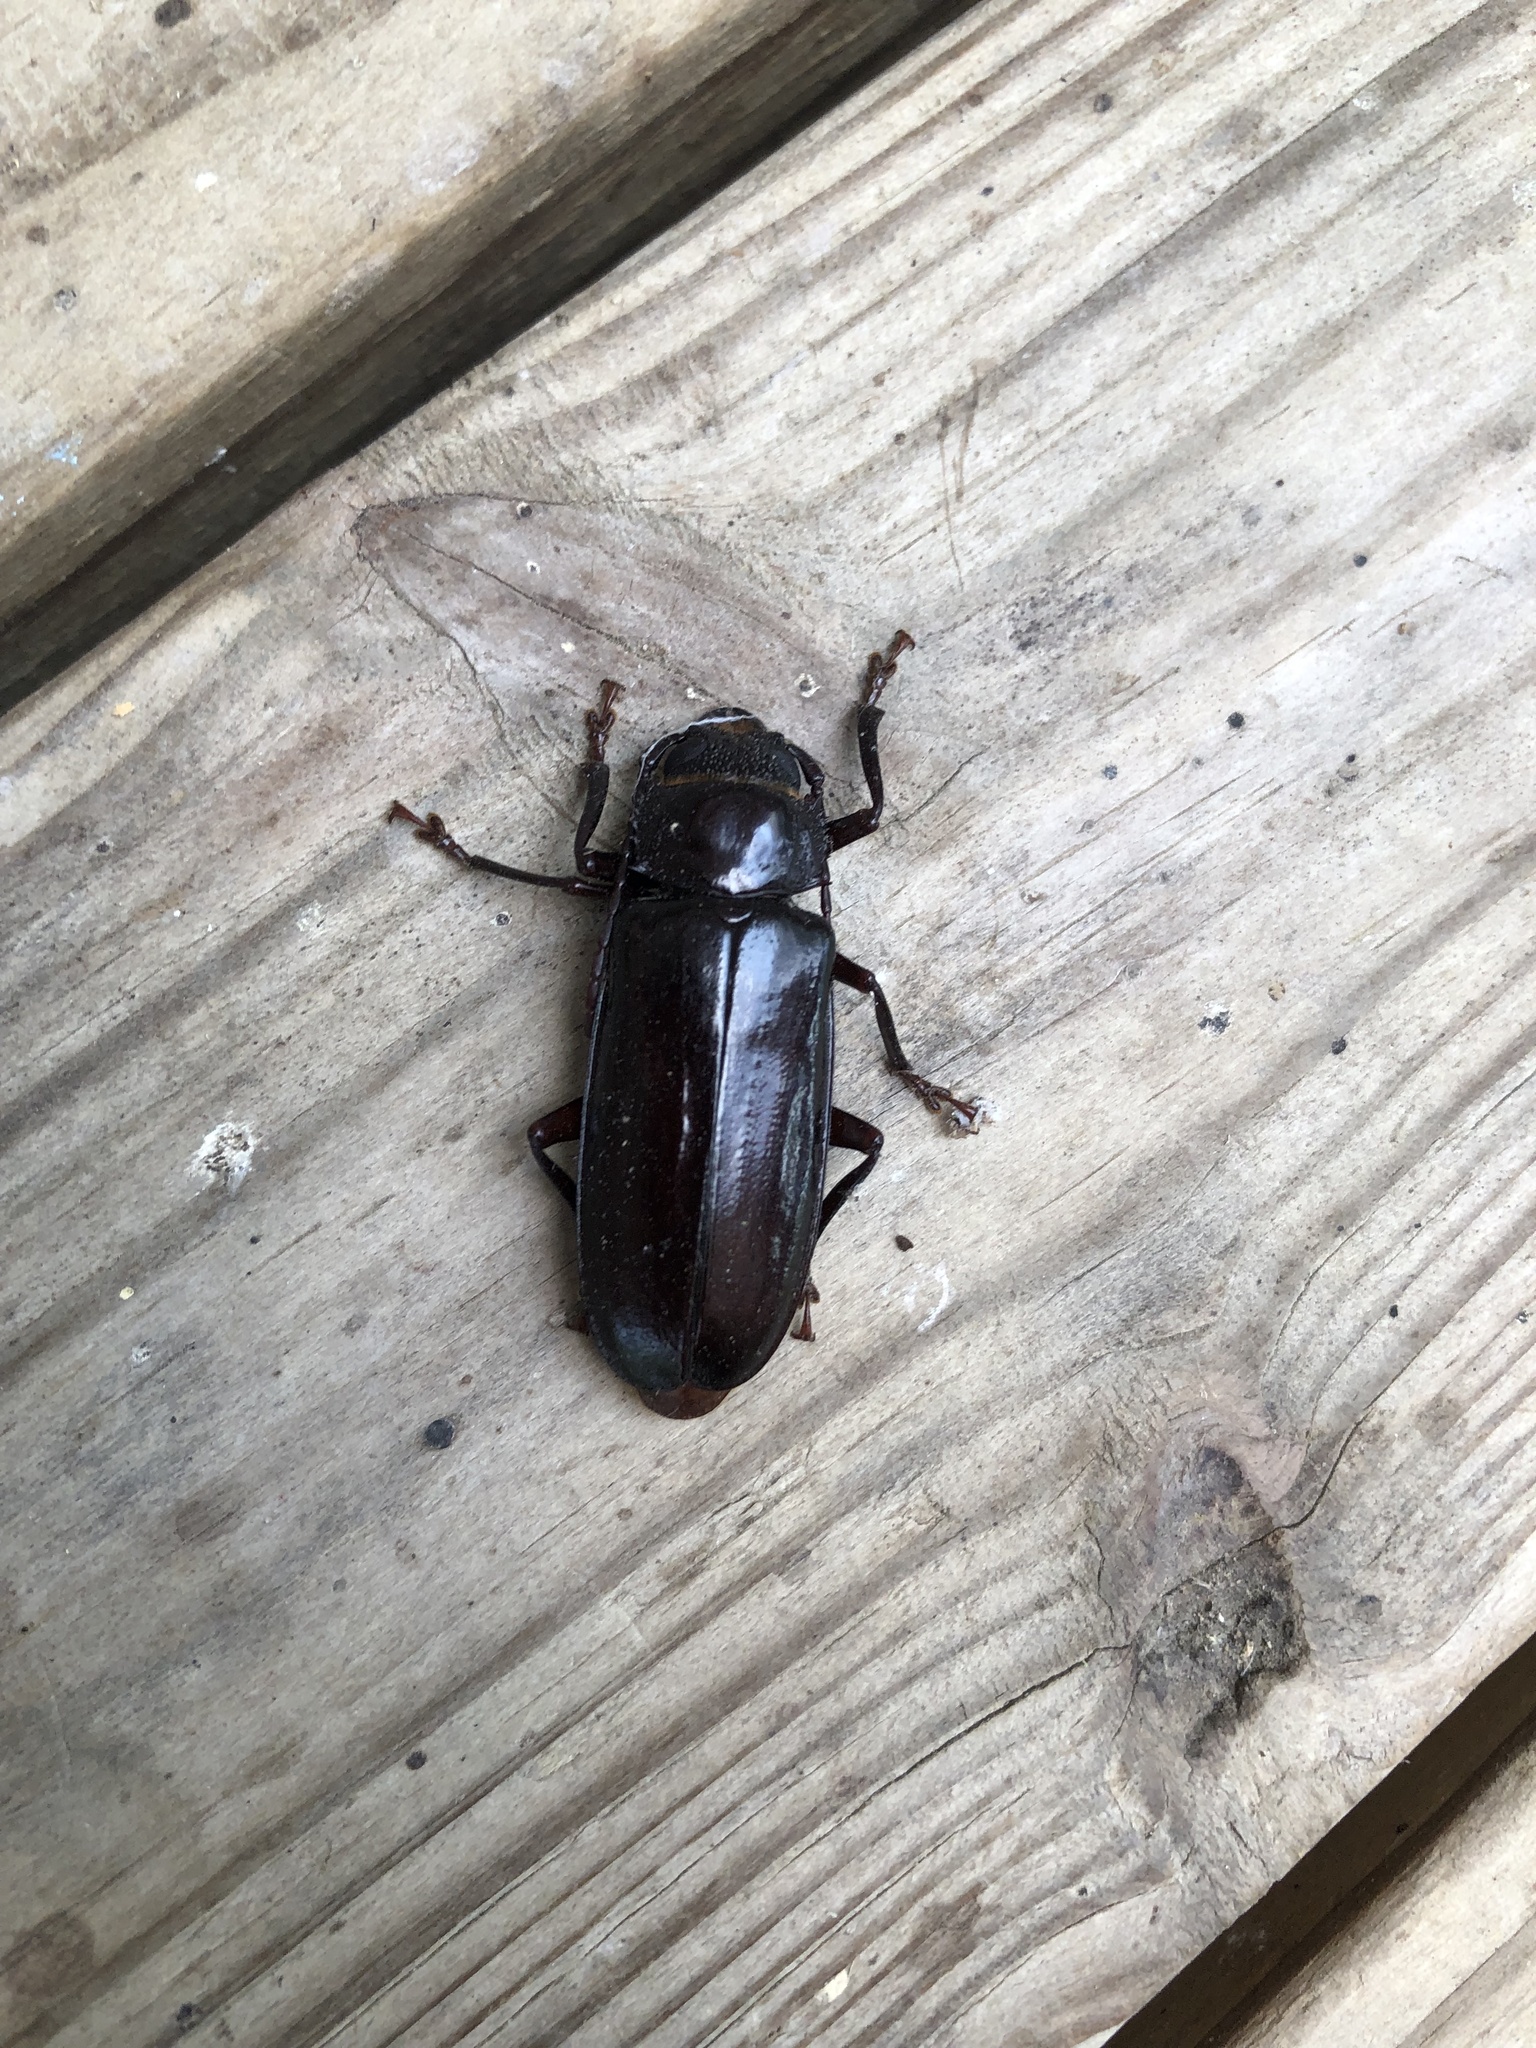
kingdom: Animalia
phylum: Arthropoda
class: Insecta
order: Coleoptera
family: Cerambycidae
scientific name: Cerambycidae
